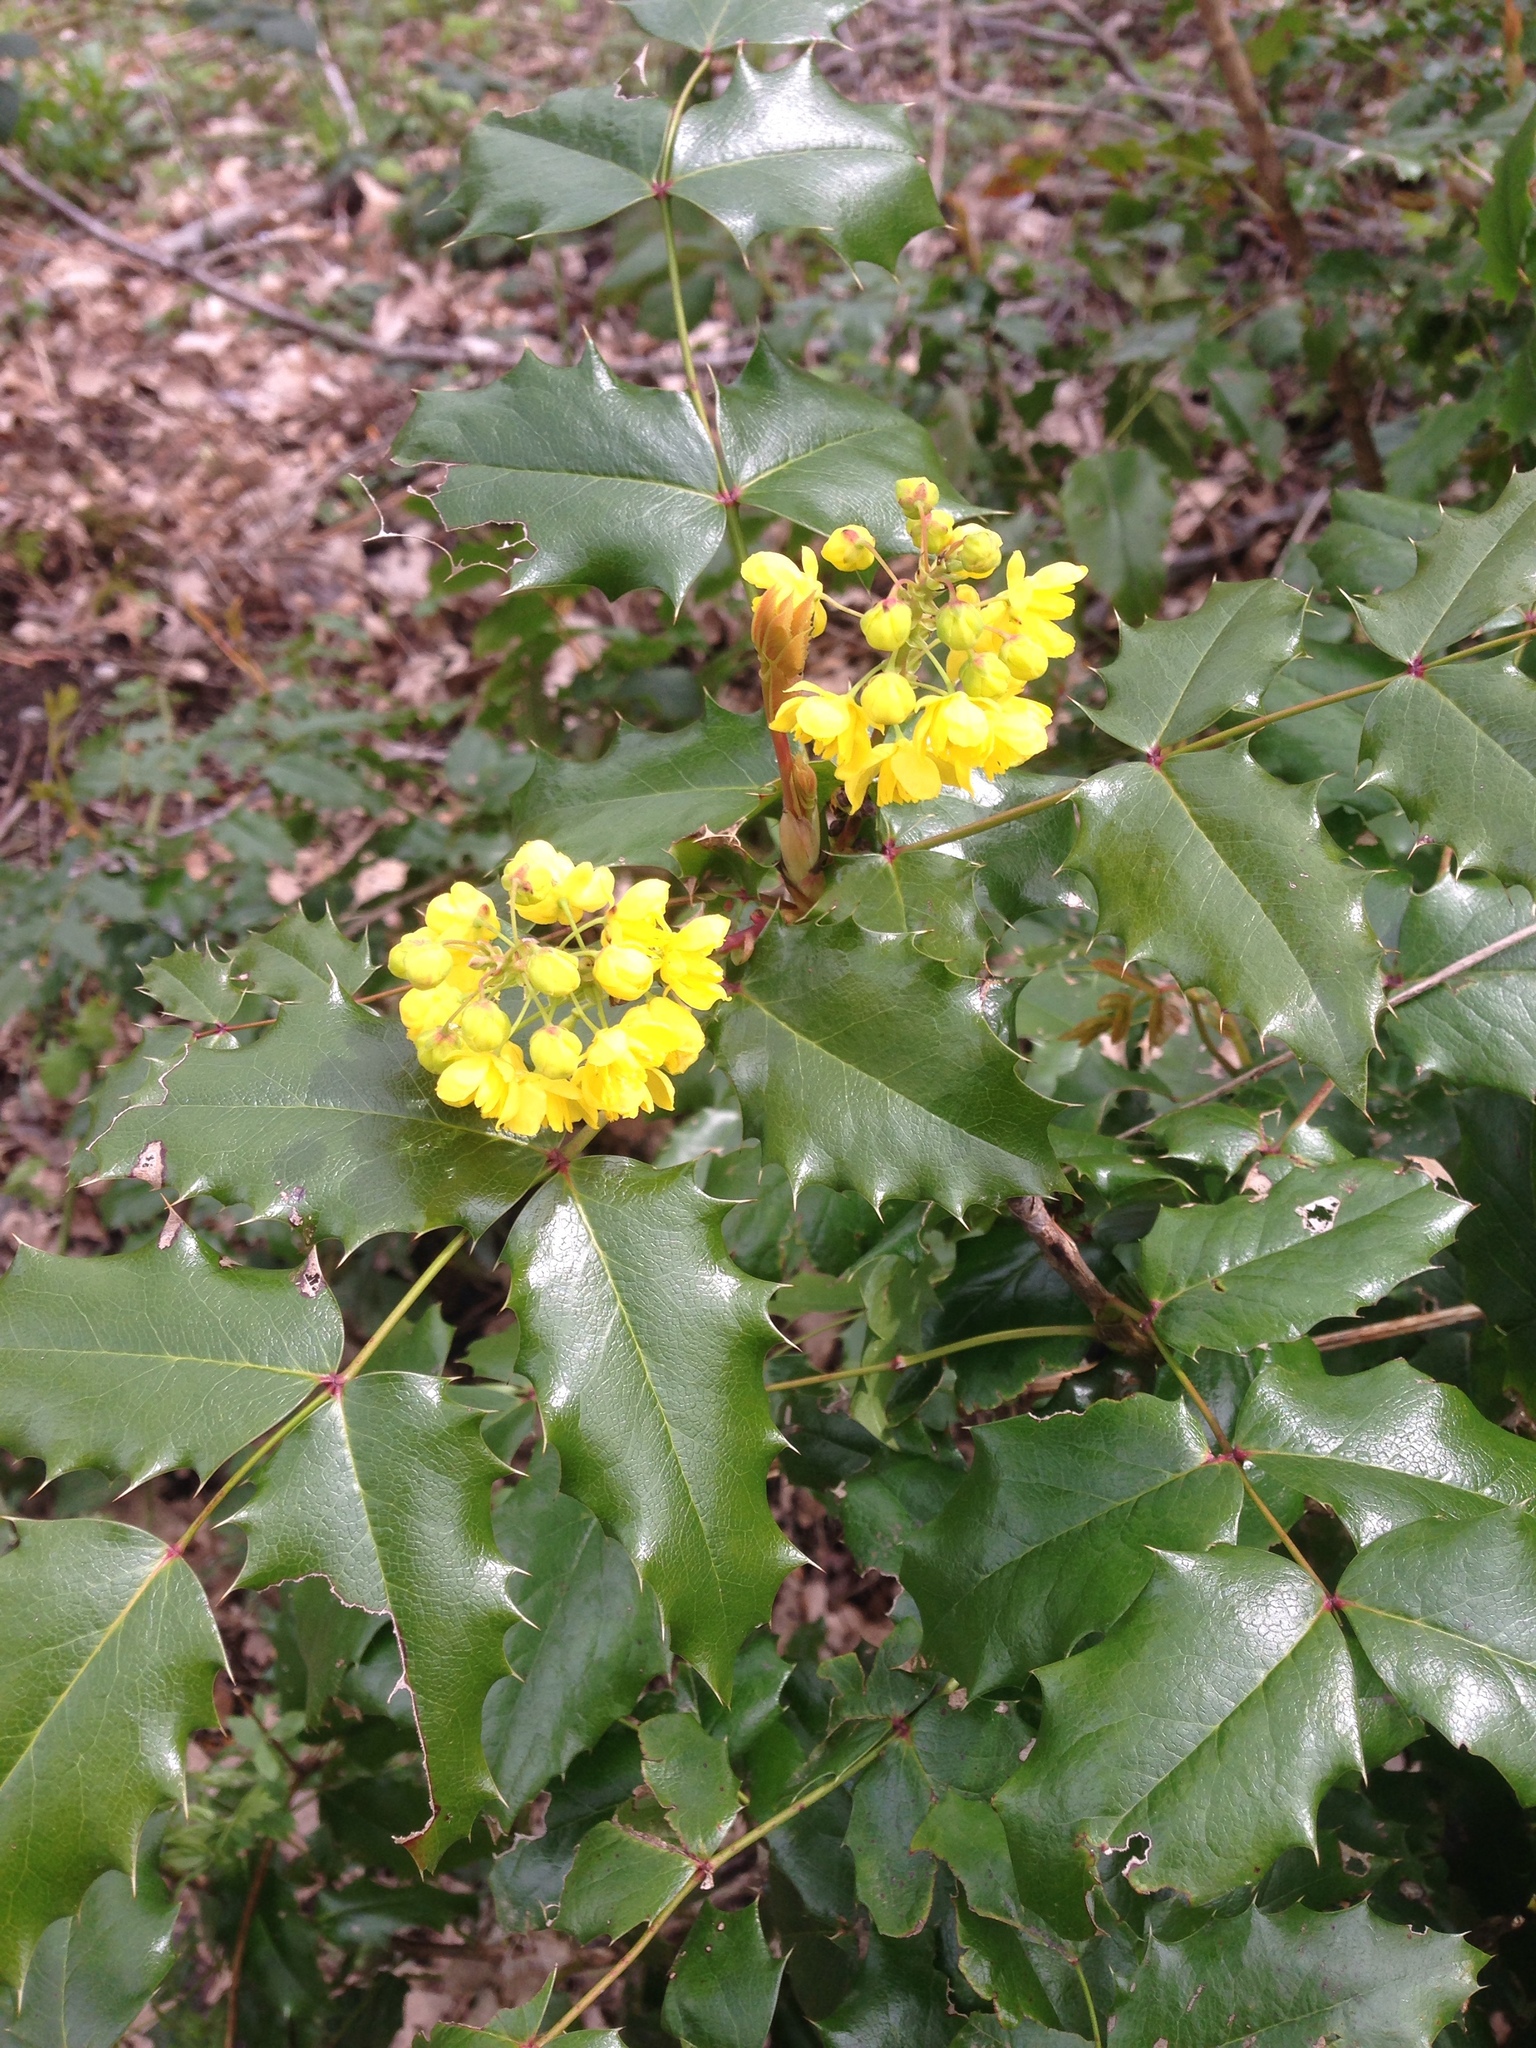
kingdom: Plantae
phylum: Tracheophyta
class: Magnoliopsida
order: Ranunculales
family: Berberidaceae
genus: Mahonia
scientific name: Mahonia aquifolium
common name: Oregon-grape
